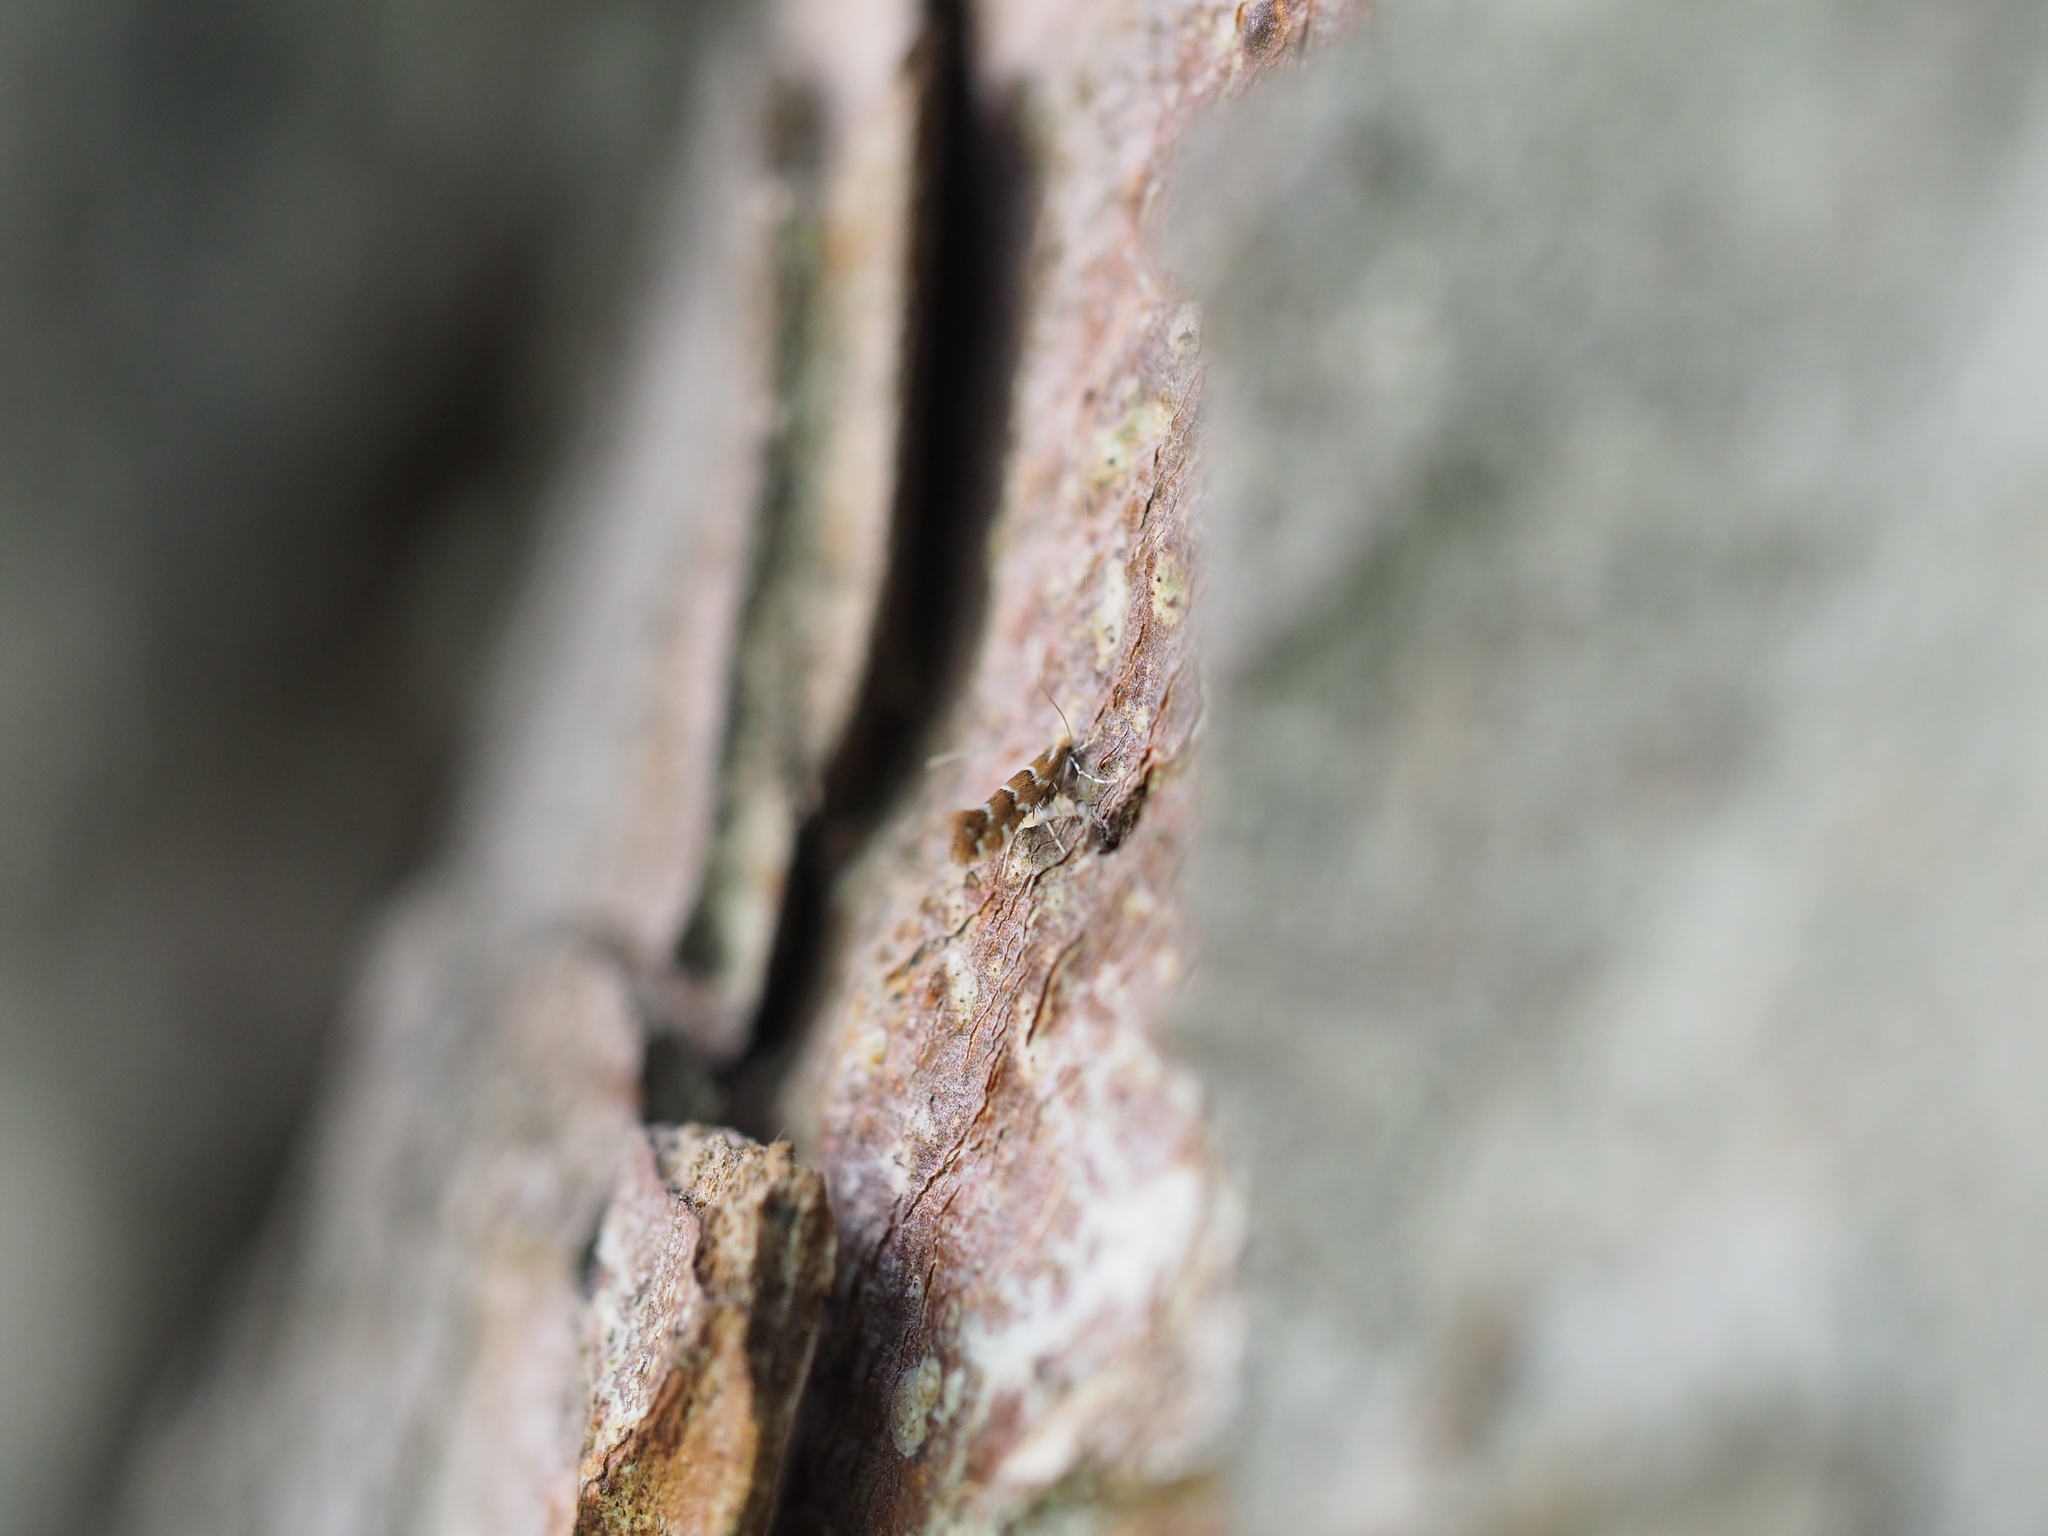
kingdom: Animalia
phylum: Arthropoda
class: Insecta
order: Lepidoptera
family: Gracillariidae
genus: Cameraria
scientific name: Cameraria ohridella
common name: Horse-chestnut leaf-miner
